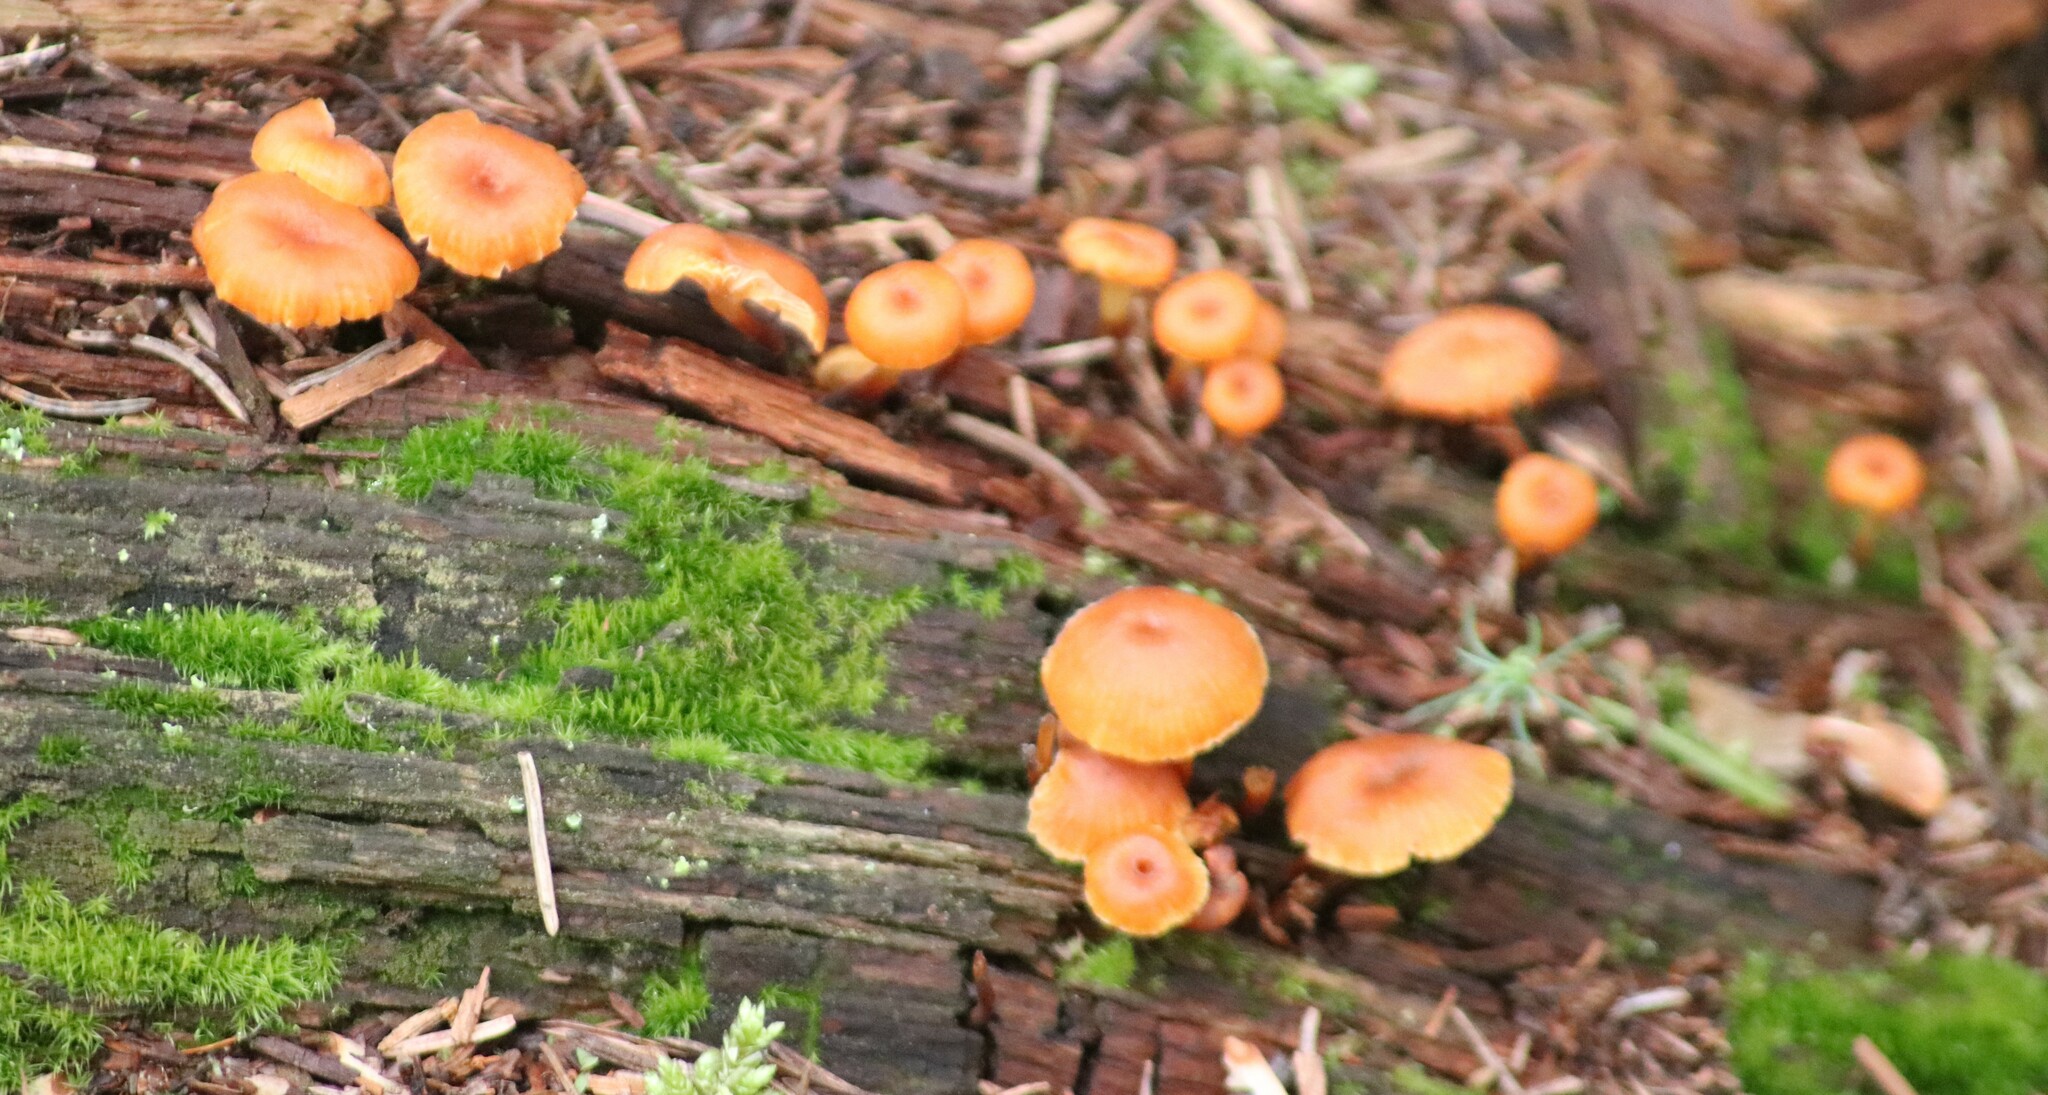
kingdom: Fungi
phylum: Basidiomycota
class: Agaricomycetes
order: Agaricales
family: Mycenaceae
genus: Xeromphalina
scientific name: Xeromphalina campanella
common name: Pinewood gingertail
